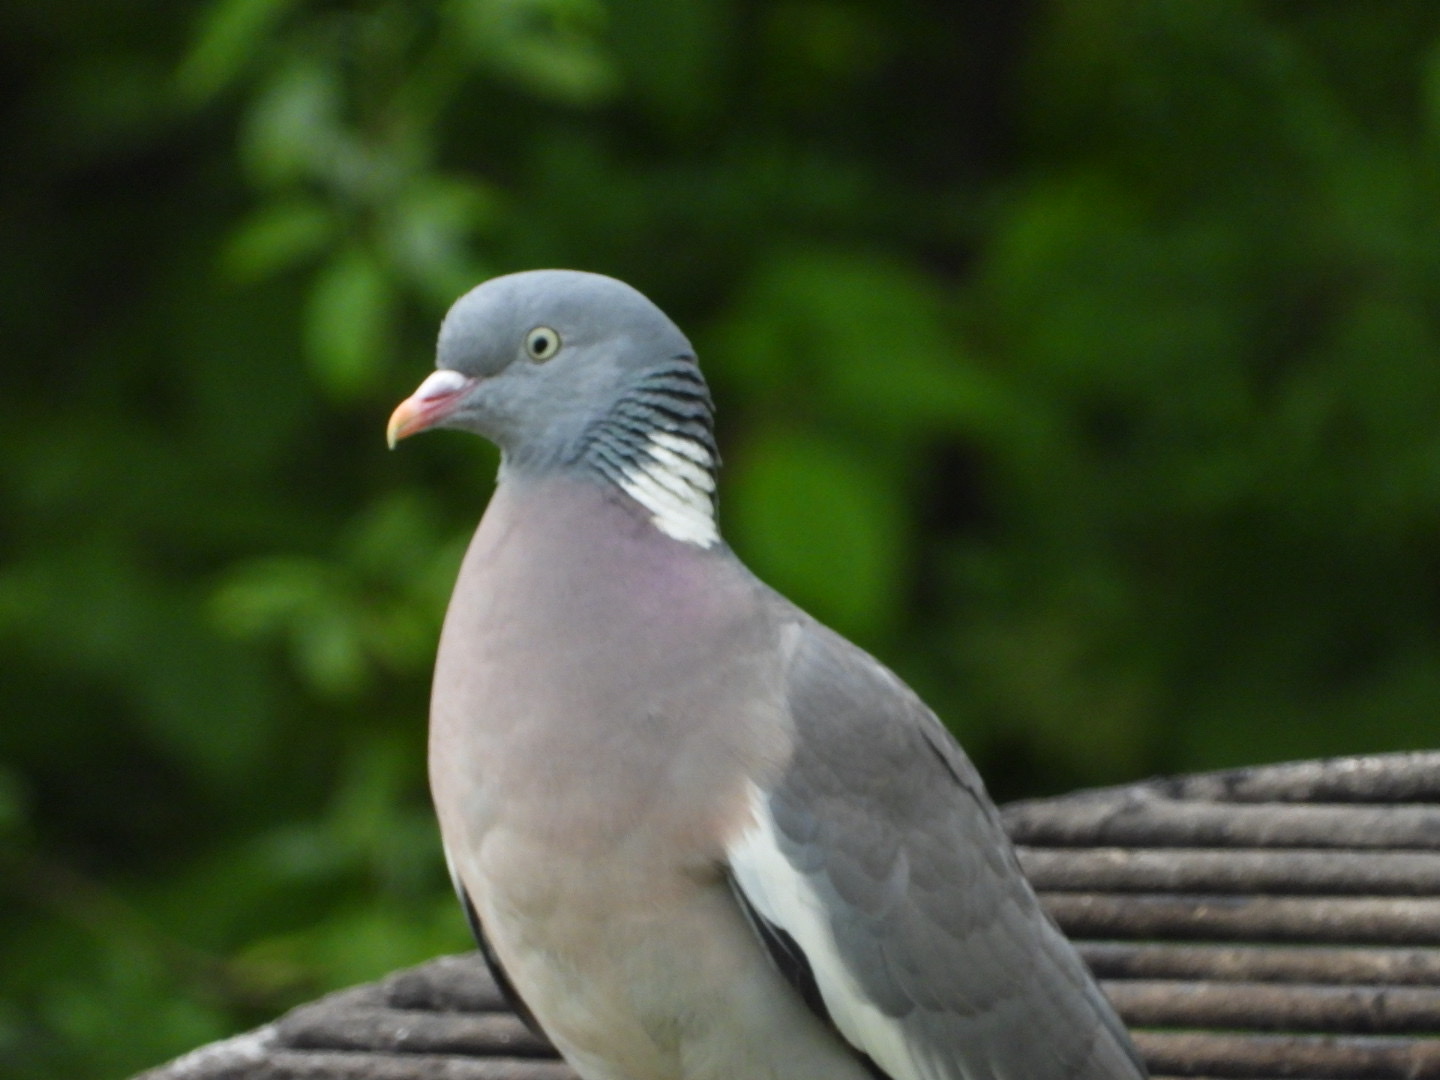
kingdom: Animalia
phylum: Chordata
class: Aves
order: Columbiformes
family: Columbidae
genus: Columba
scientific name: Columba palumbus
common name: Common wood pigeon
